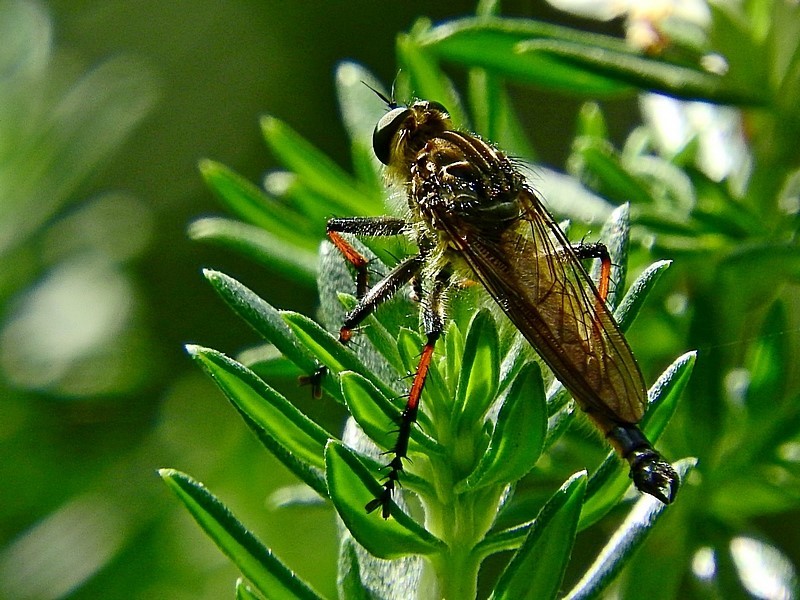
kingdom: Animalia
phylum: Arthropoda
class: Insecta
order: Diptera
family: Asilidae
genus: Zosteria
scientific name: Zosteria rosevillensis
